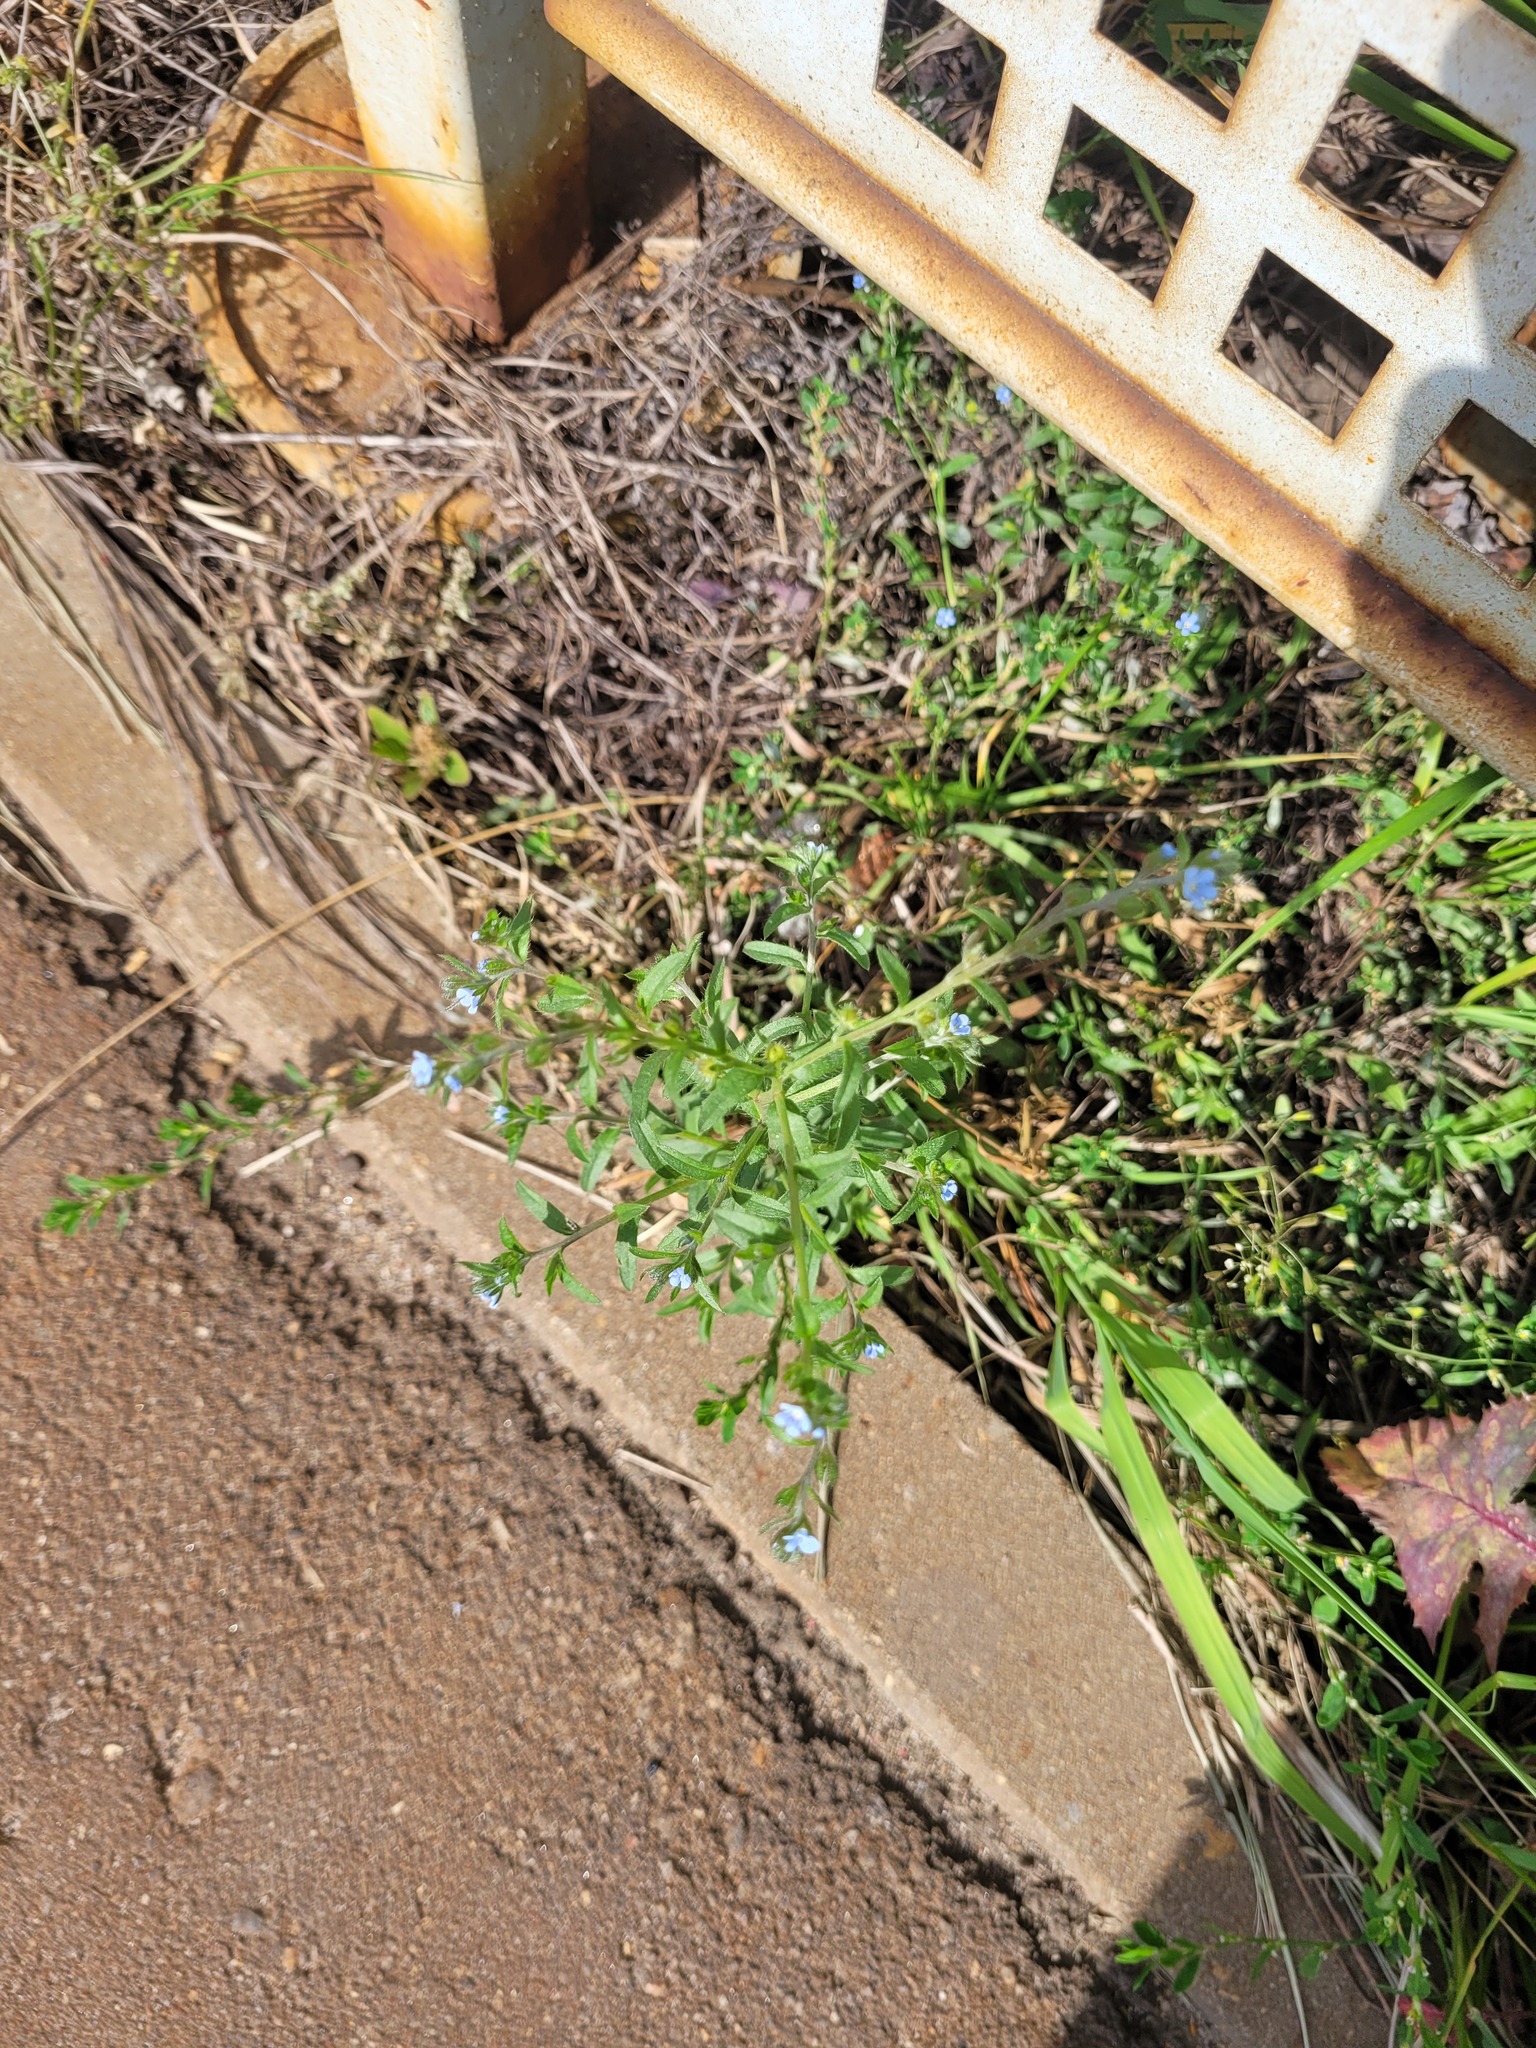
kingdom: Plantae
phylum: Tracheophyta
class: Magnoliopsida
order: Boraginales
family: Boraginaceae
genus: Lappula
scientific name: Lappula squarrosa
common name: European stickseed
